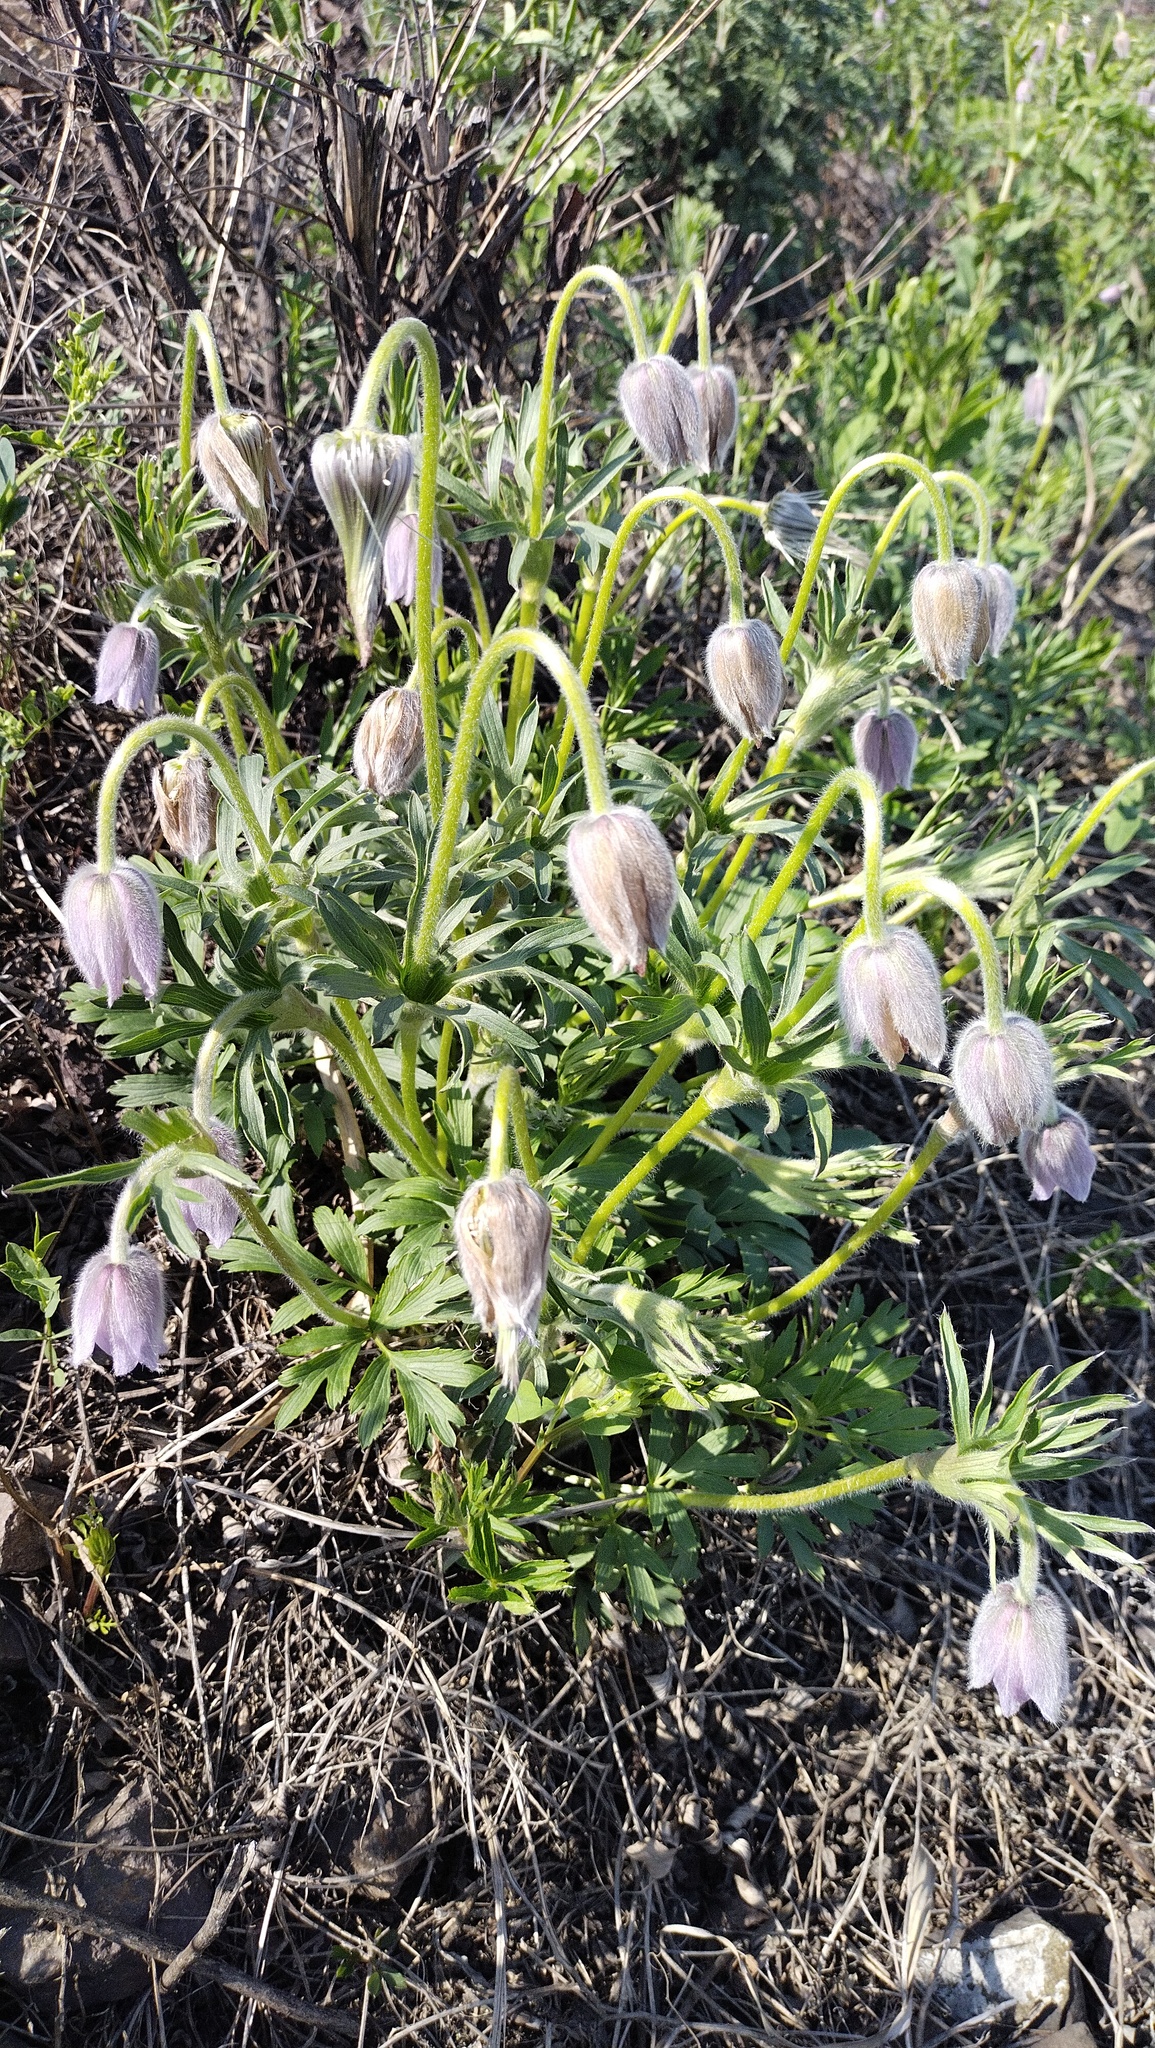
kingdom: Plantae
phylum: Tracheophyta
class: Magnoliopsida
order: Ranunculales
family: Ranunculaceae
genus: Pulsatilla
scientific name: Pulsatilla dahurica
